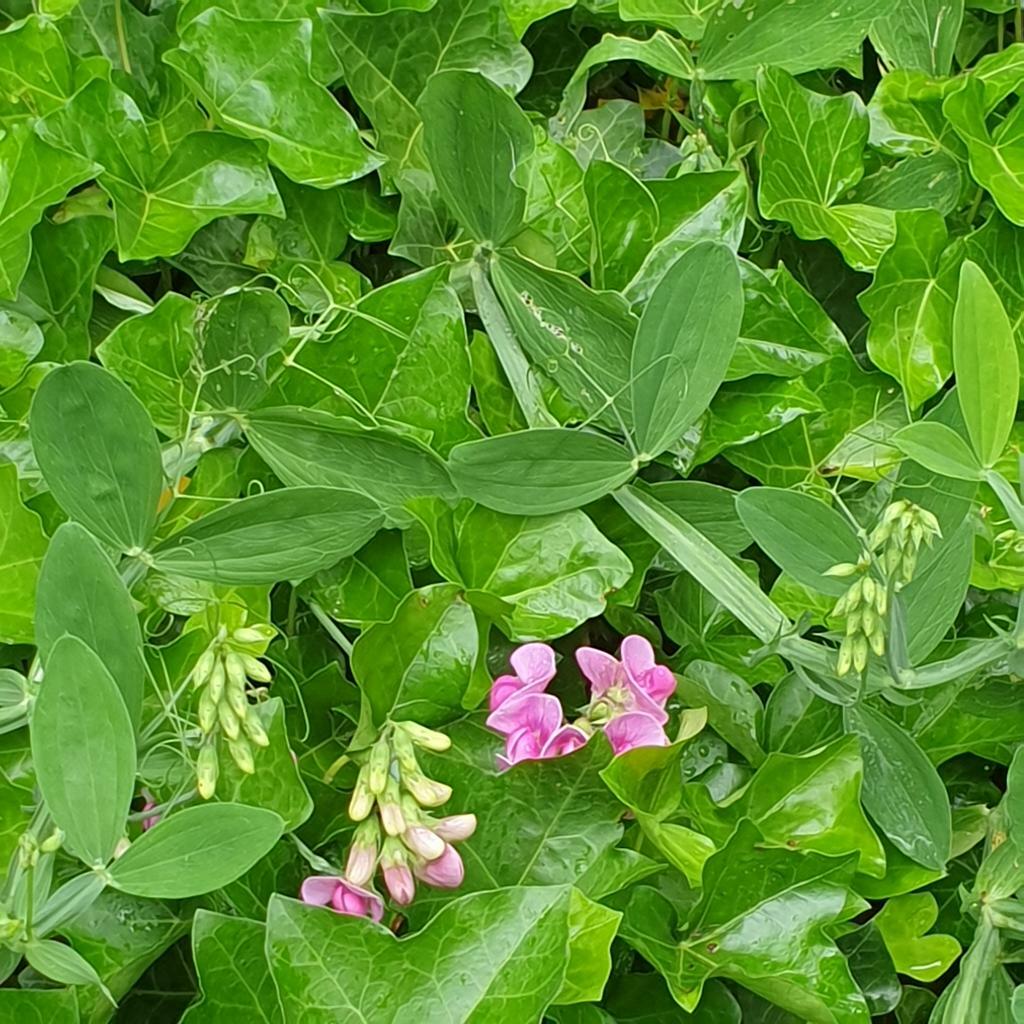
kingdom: Plantae
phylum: Tracheophyta
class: Magnoliopsida
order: Fabales
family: Fabaceae
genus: Lathyrus
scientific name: Lathyrus latifolius
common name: Perennial pea
